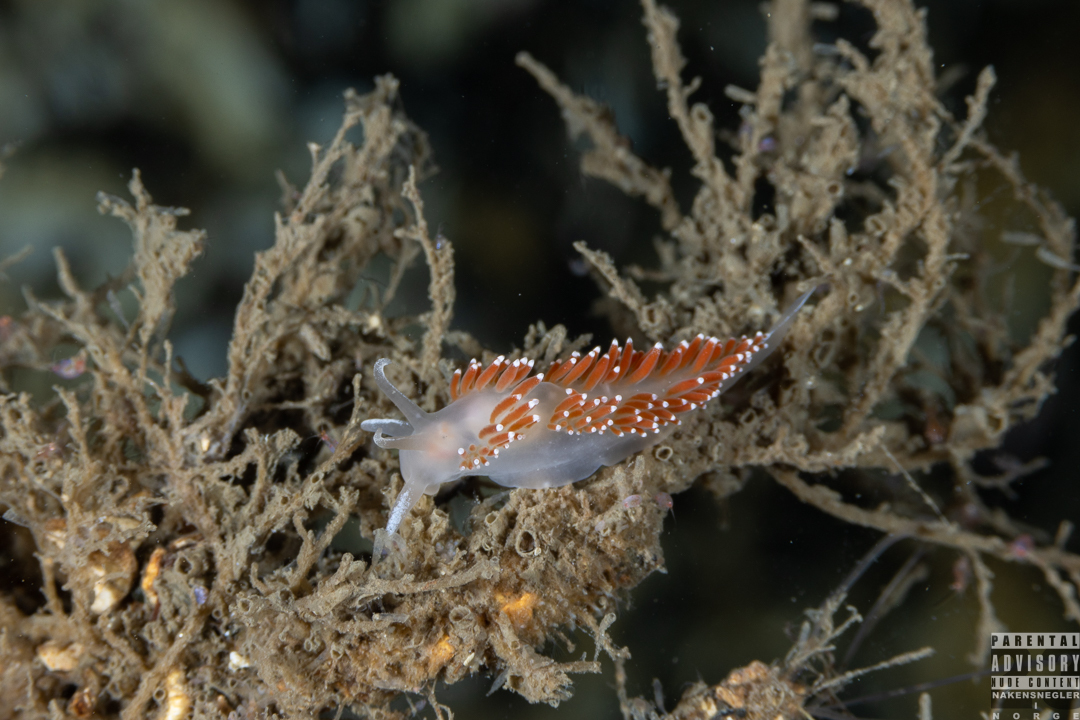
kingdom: Animalia
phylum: Mollusca
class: Gastropoda
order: Nudibranchia
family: Coryphellidae
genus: Coryphella
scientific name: Coryphella verrucosa
